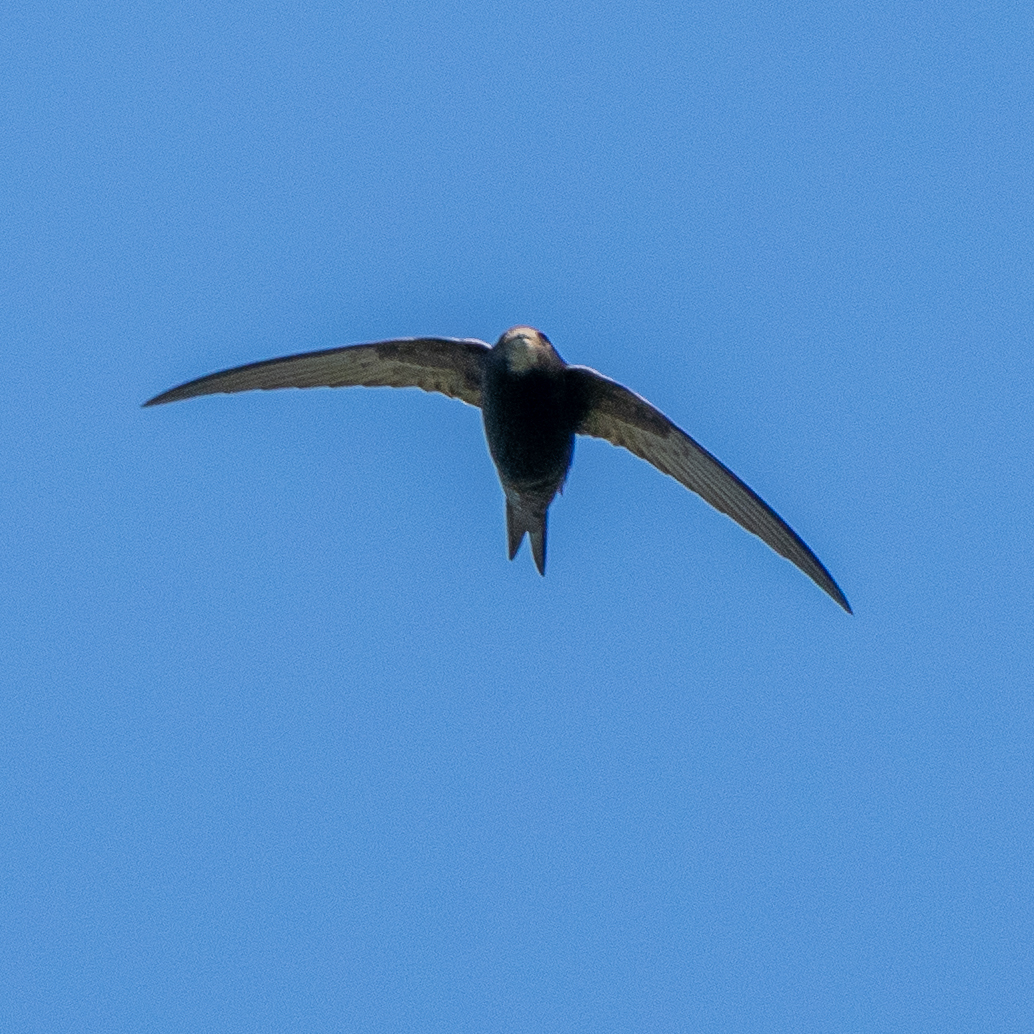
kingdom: Animalia
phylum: Chordata
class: Aves
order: Apodiformes
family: Apodidae
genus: Apus
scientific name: Apus apus
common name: Common swift
